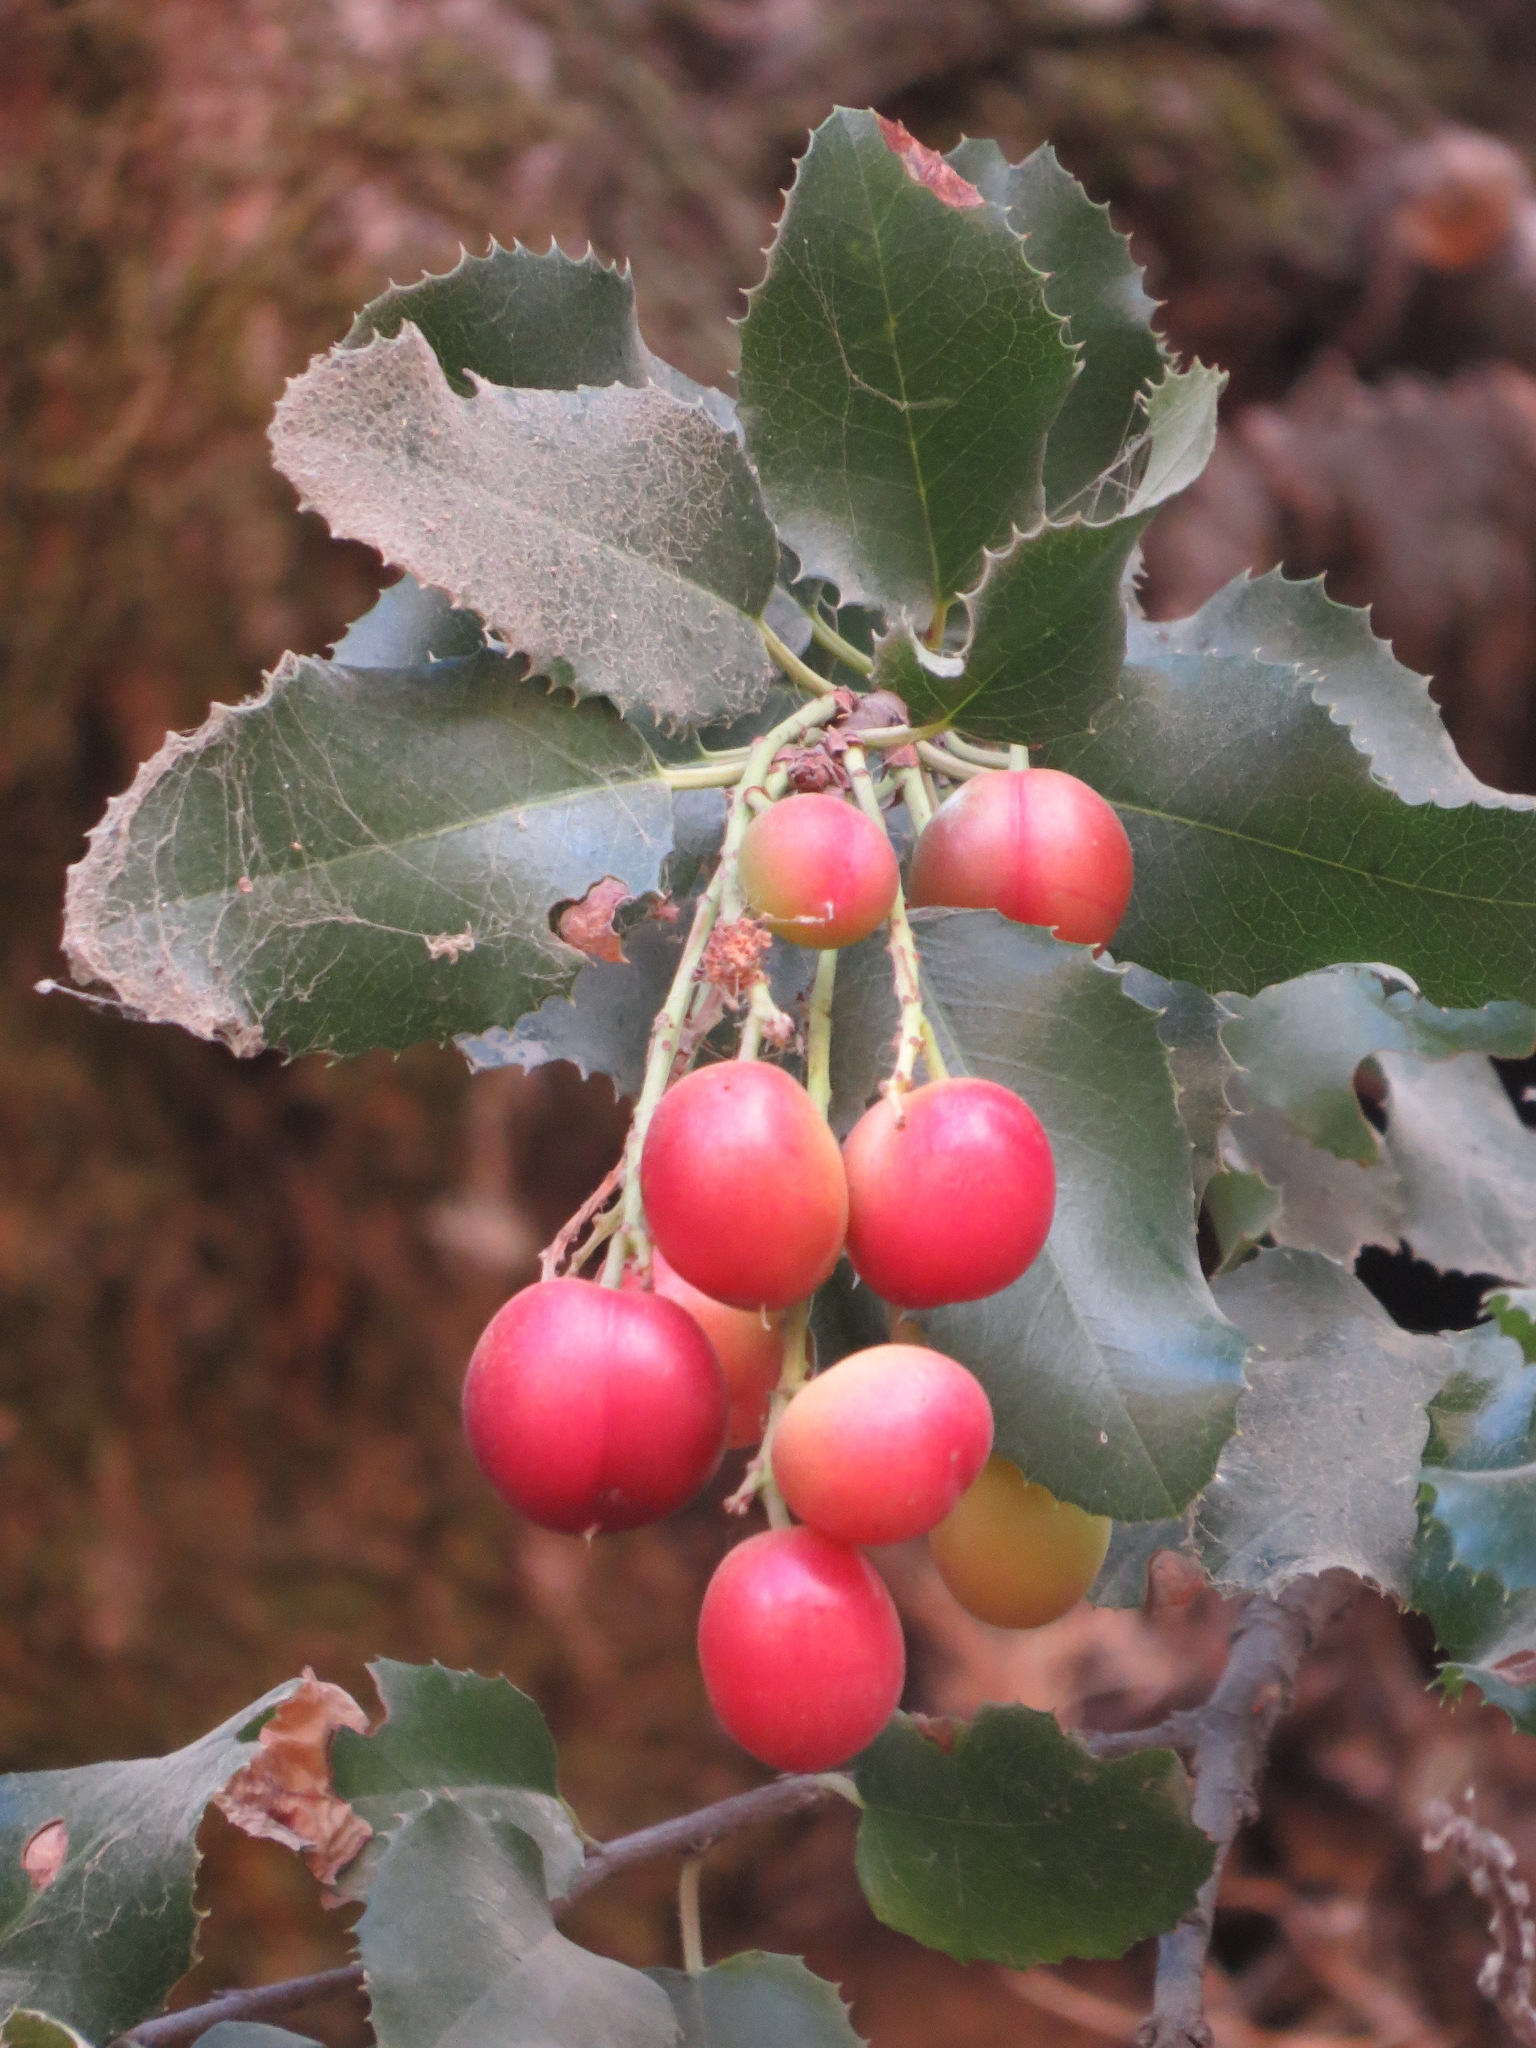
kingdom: Plantae
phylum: Tracheophyta
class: Magnoliopsida
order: Rosales
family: Rosaceae
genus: Prunus
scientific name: Prunus ilicifolia
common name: Hollyleaf cherry
